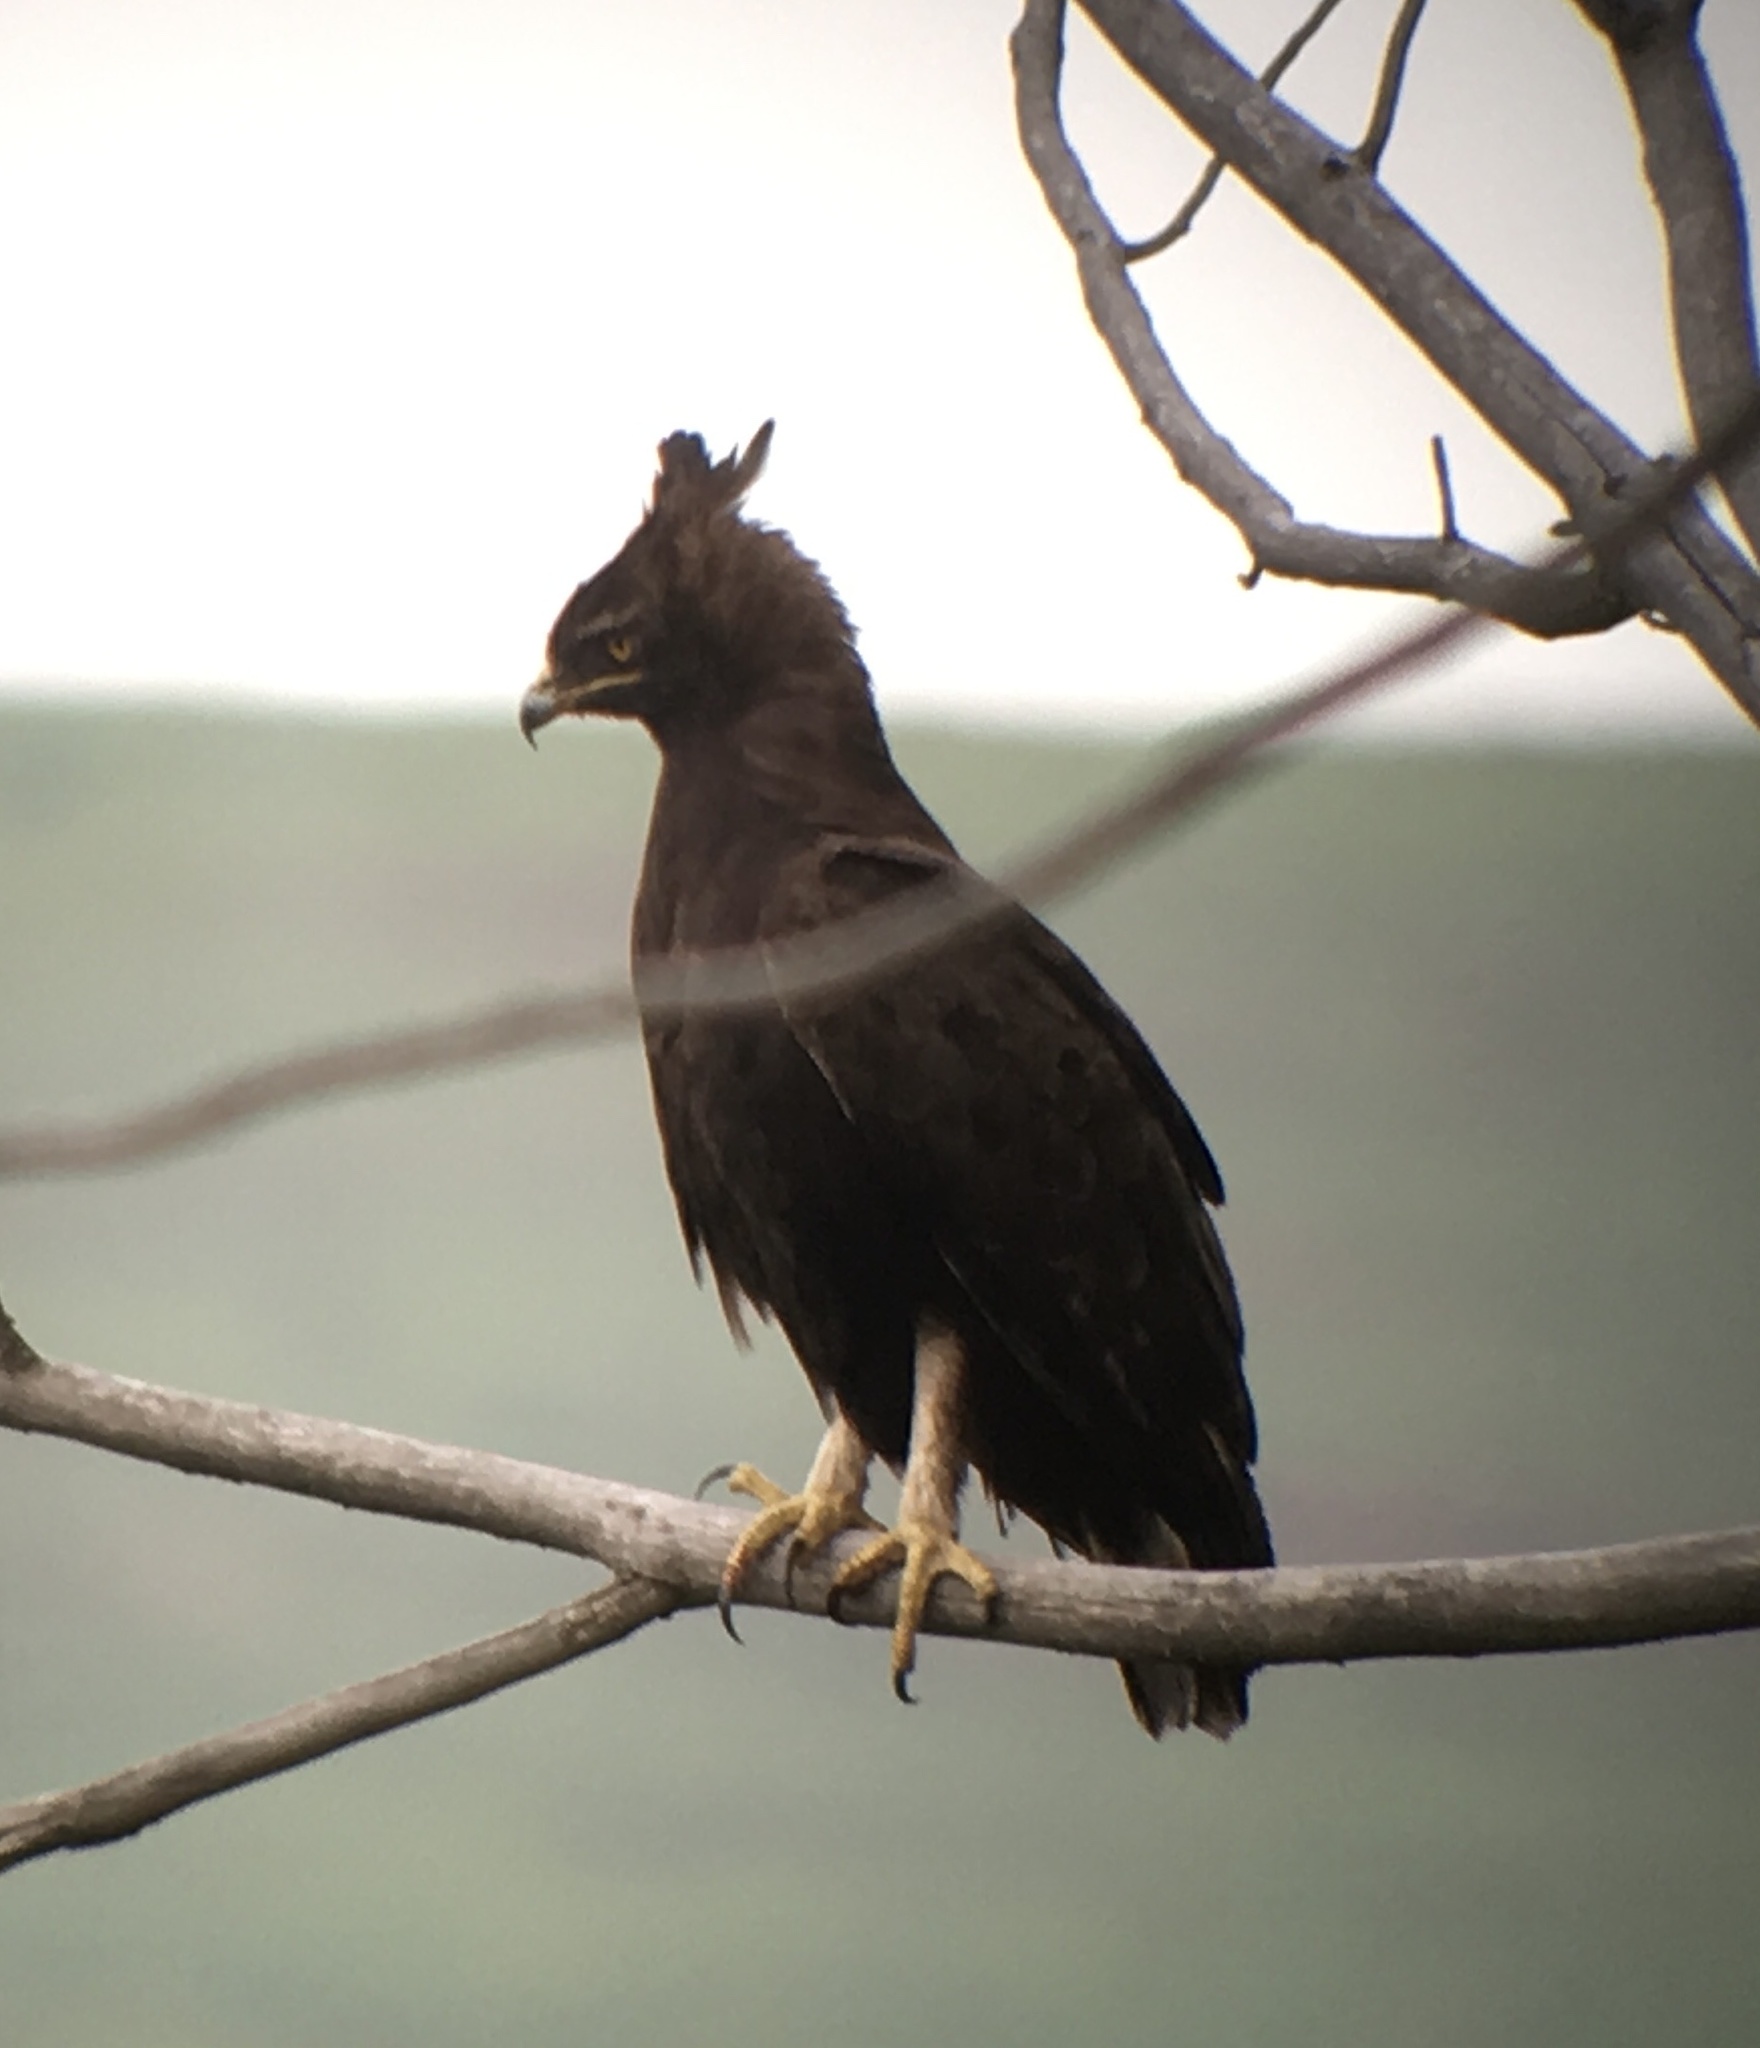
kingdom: Animalia
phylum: Chordata
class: Aves
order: Accipitriformes
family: Accipitridae
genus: Lophaetus
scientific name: Lophaetus occipitalis
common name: Long-crested eagle
